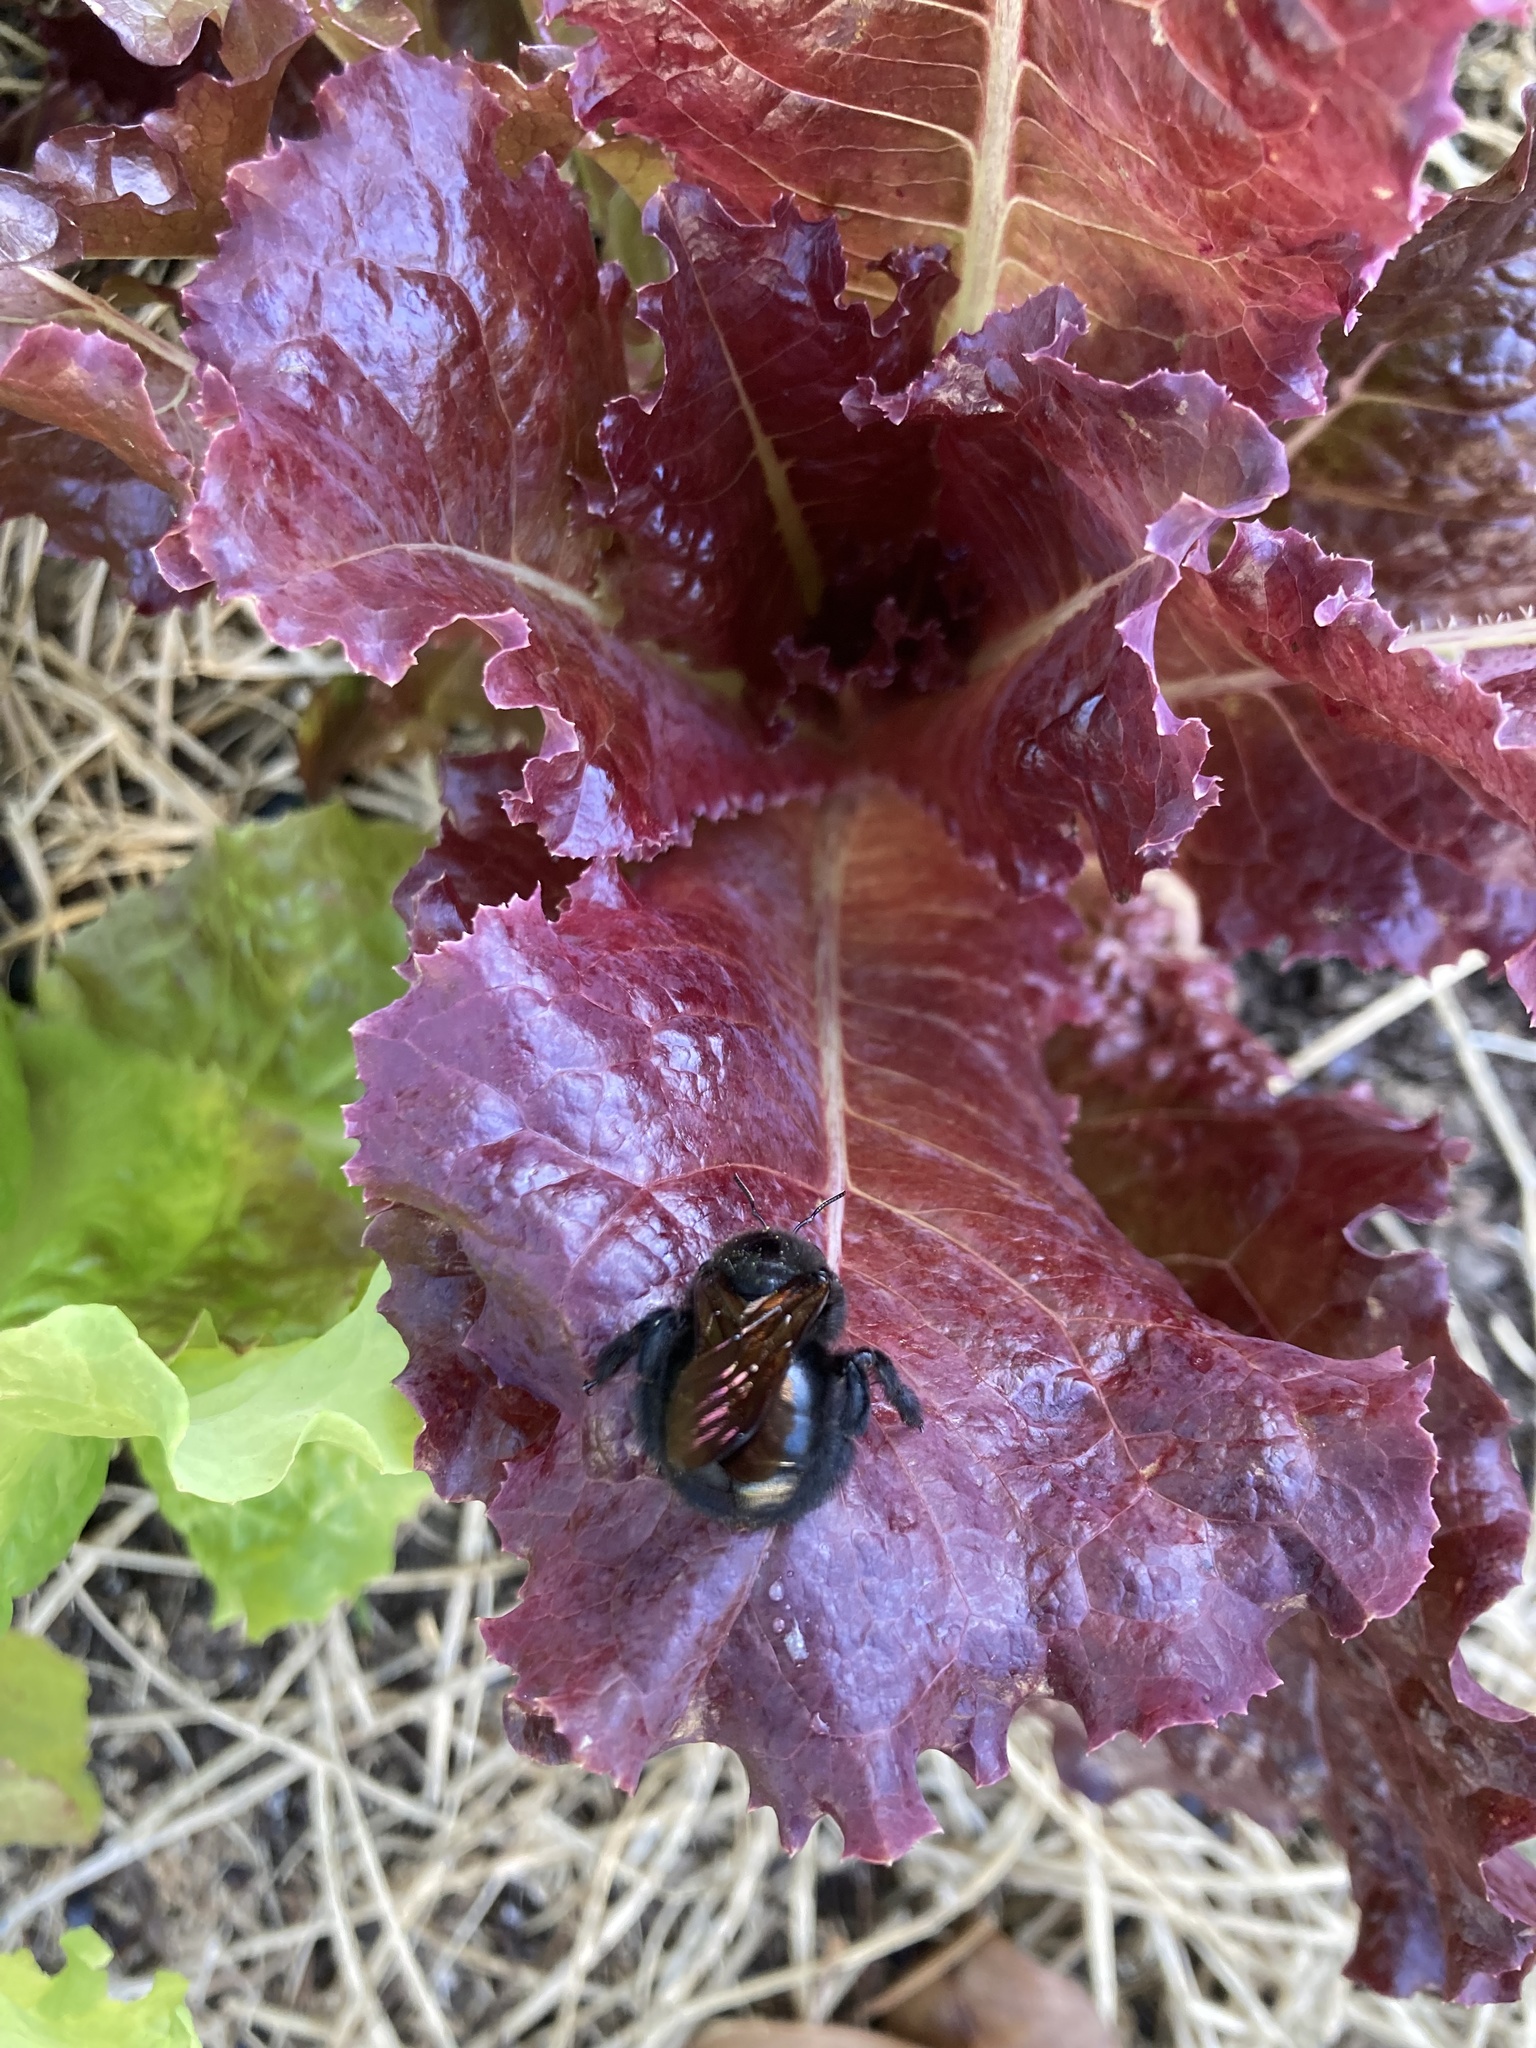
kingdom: Animalia
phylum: Arthropoda
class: Insecta
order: Hymenoptera
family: Apidae
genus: Xylocopa
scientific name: Xylocopa sonorina
